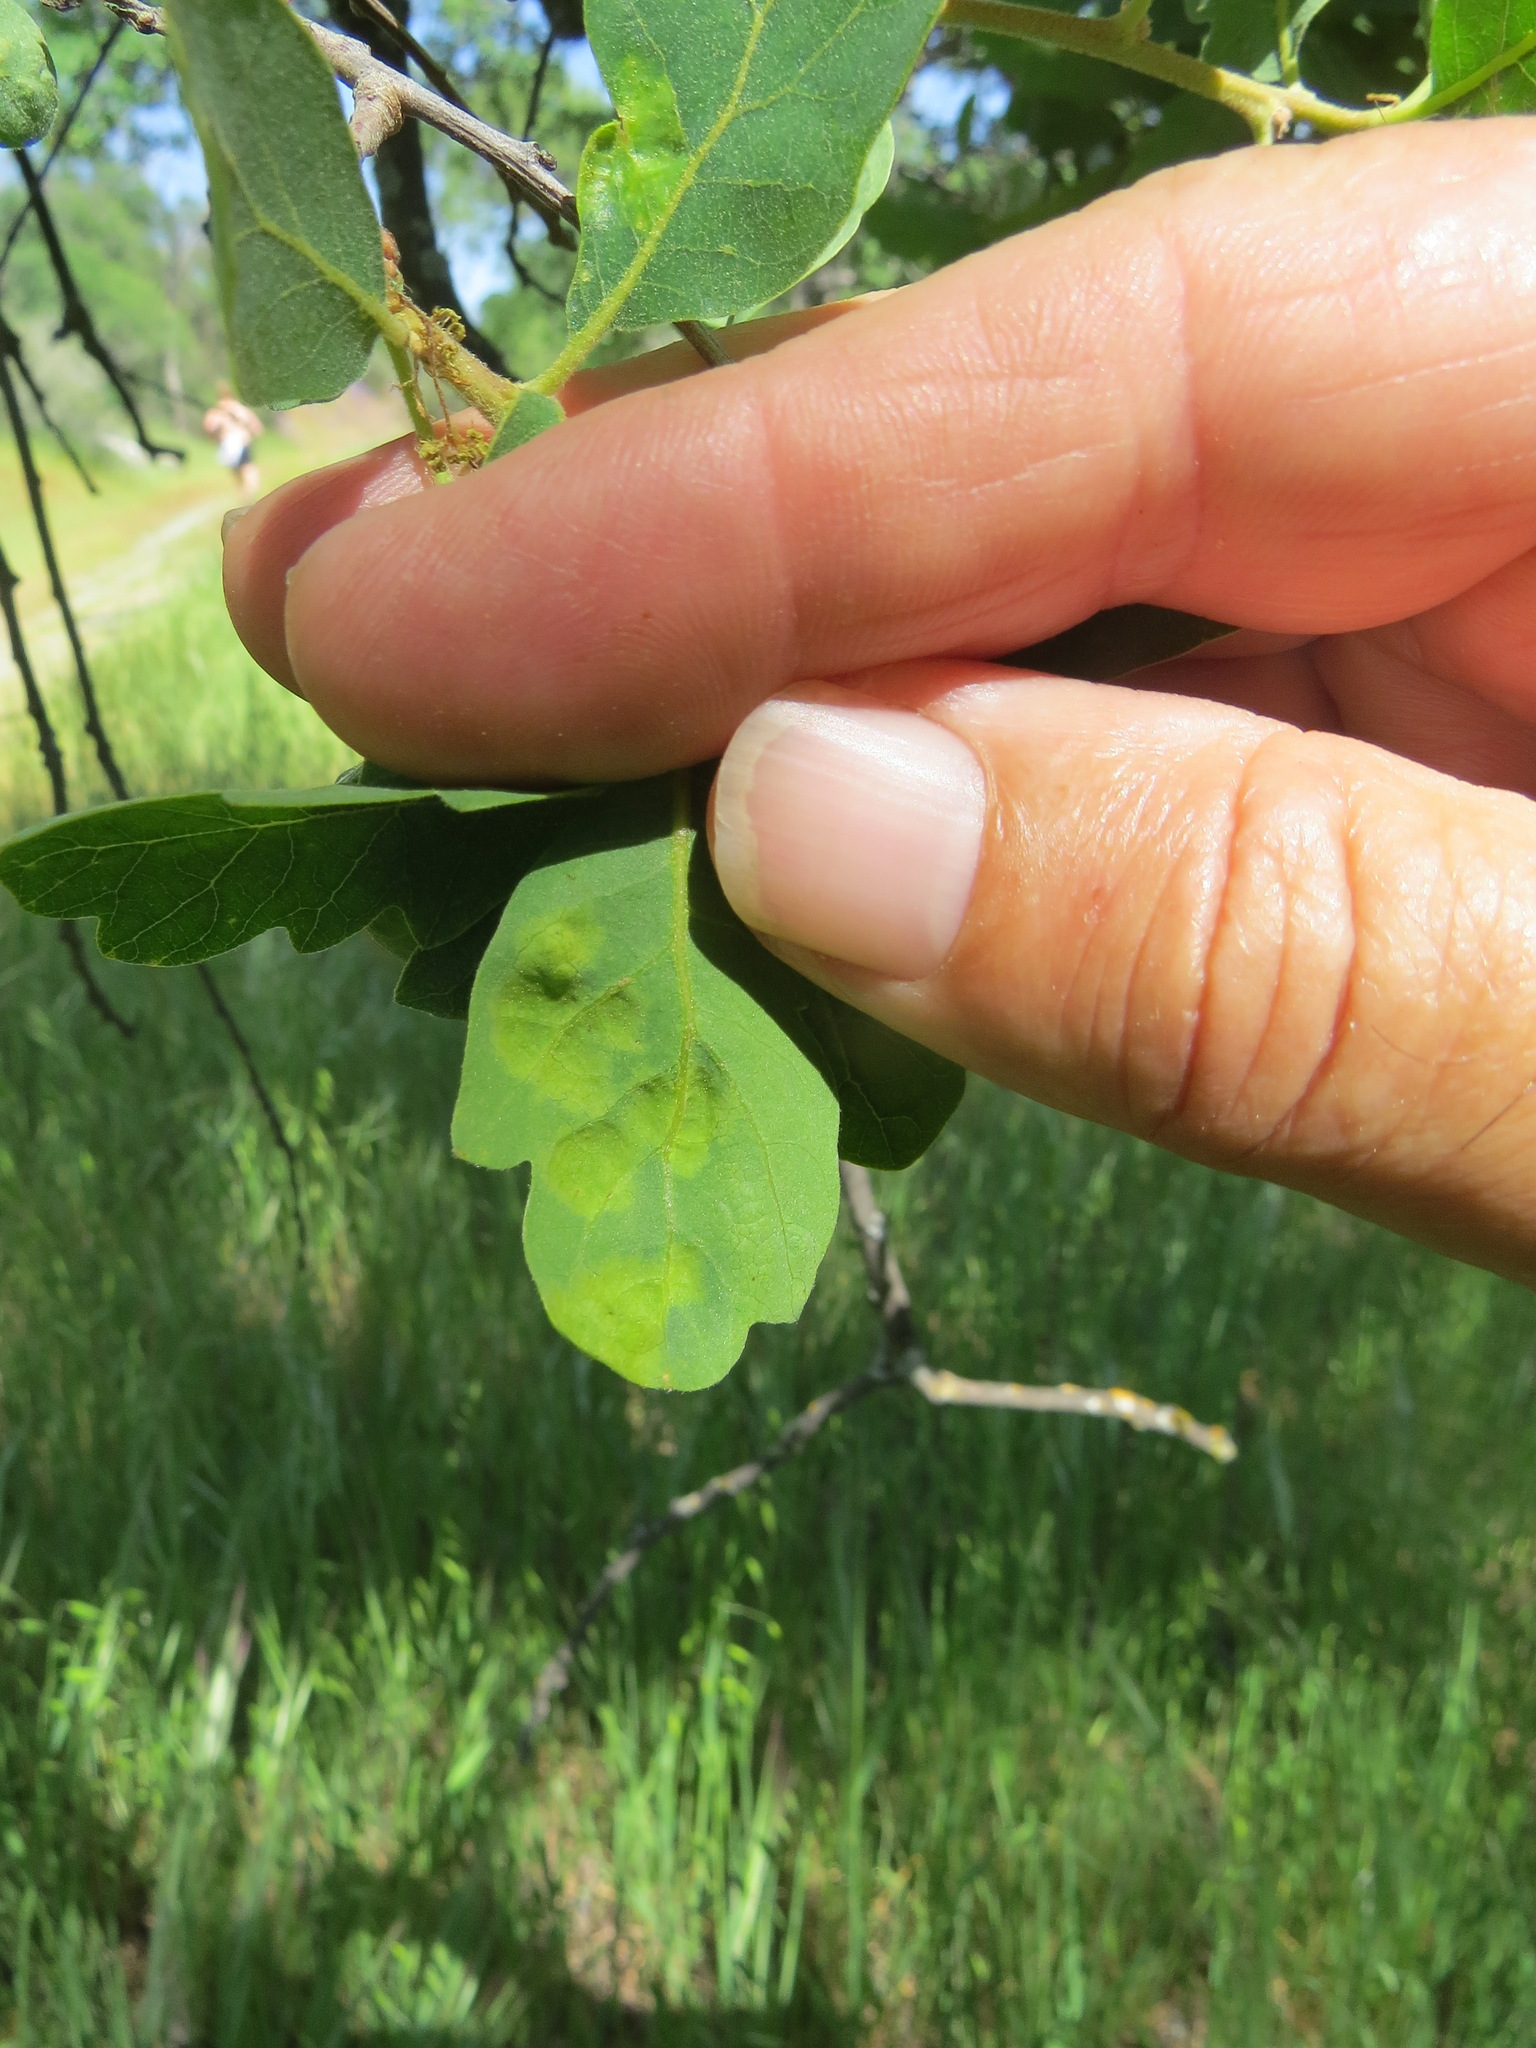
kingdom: Fungi
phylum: Ascomycota
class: Taphrinomycetes
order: Taphrinales
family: Taphrinaceae
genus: Taphrina
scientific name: Taphrina caerulescens
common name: Oak leaf blister
